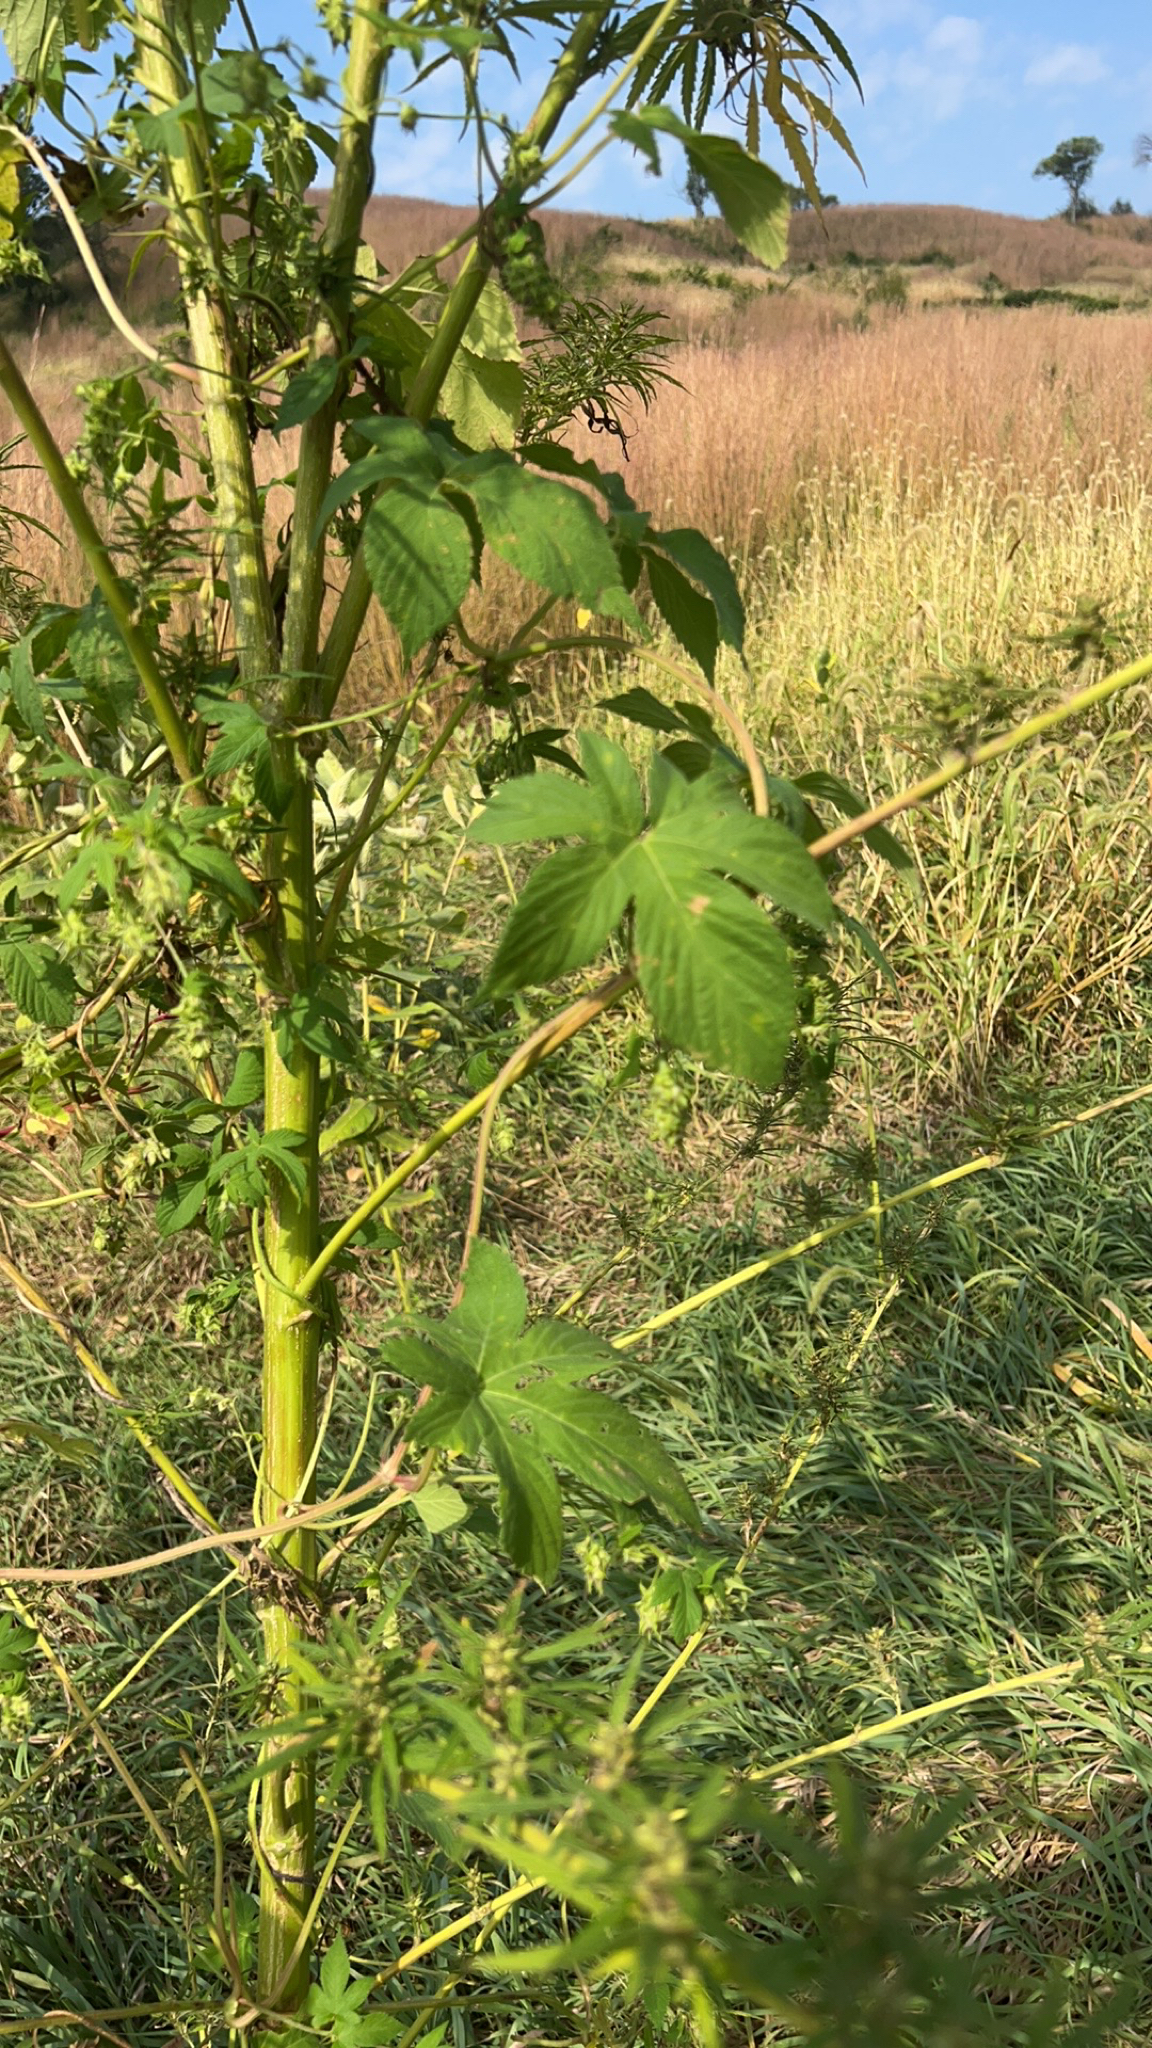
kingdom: Plantae
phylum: Tracheophyta
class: Magnoliopsida
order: Rosales
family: Cannabaceae
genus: Humulus
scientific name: Humulus scandens
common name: Japanese hop
